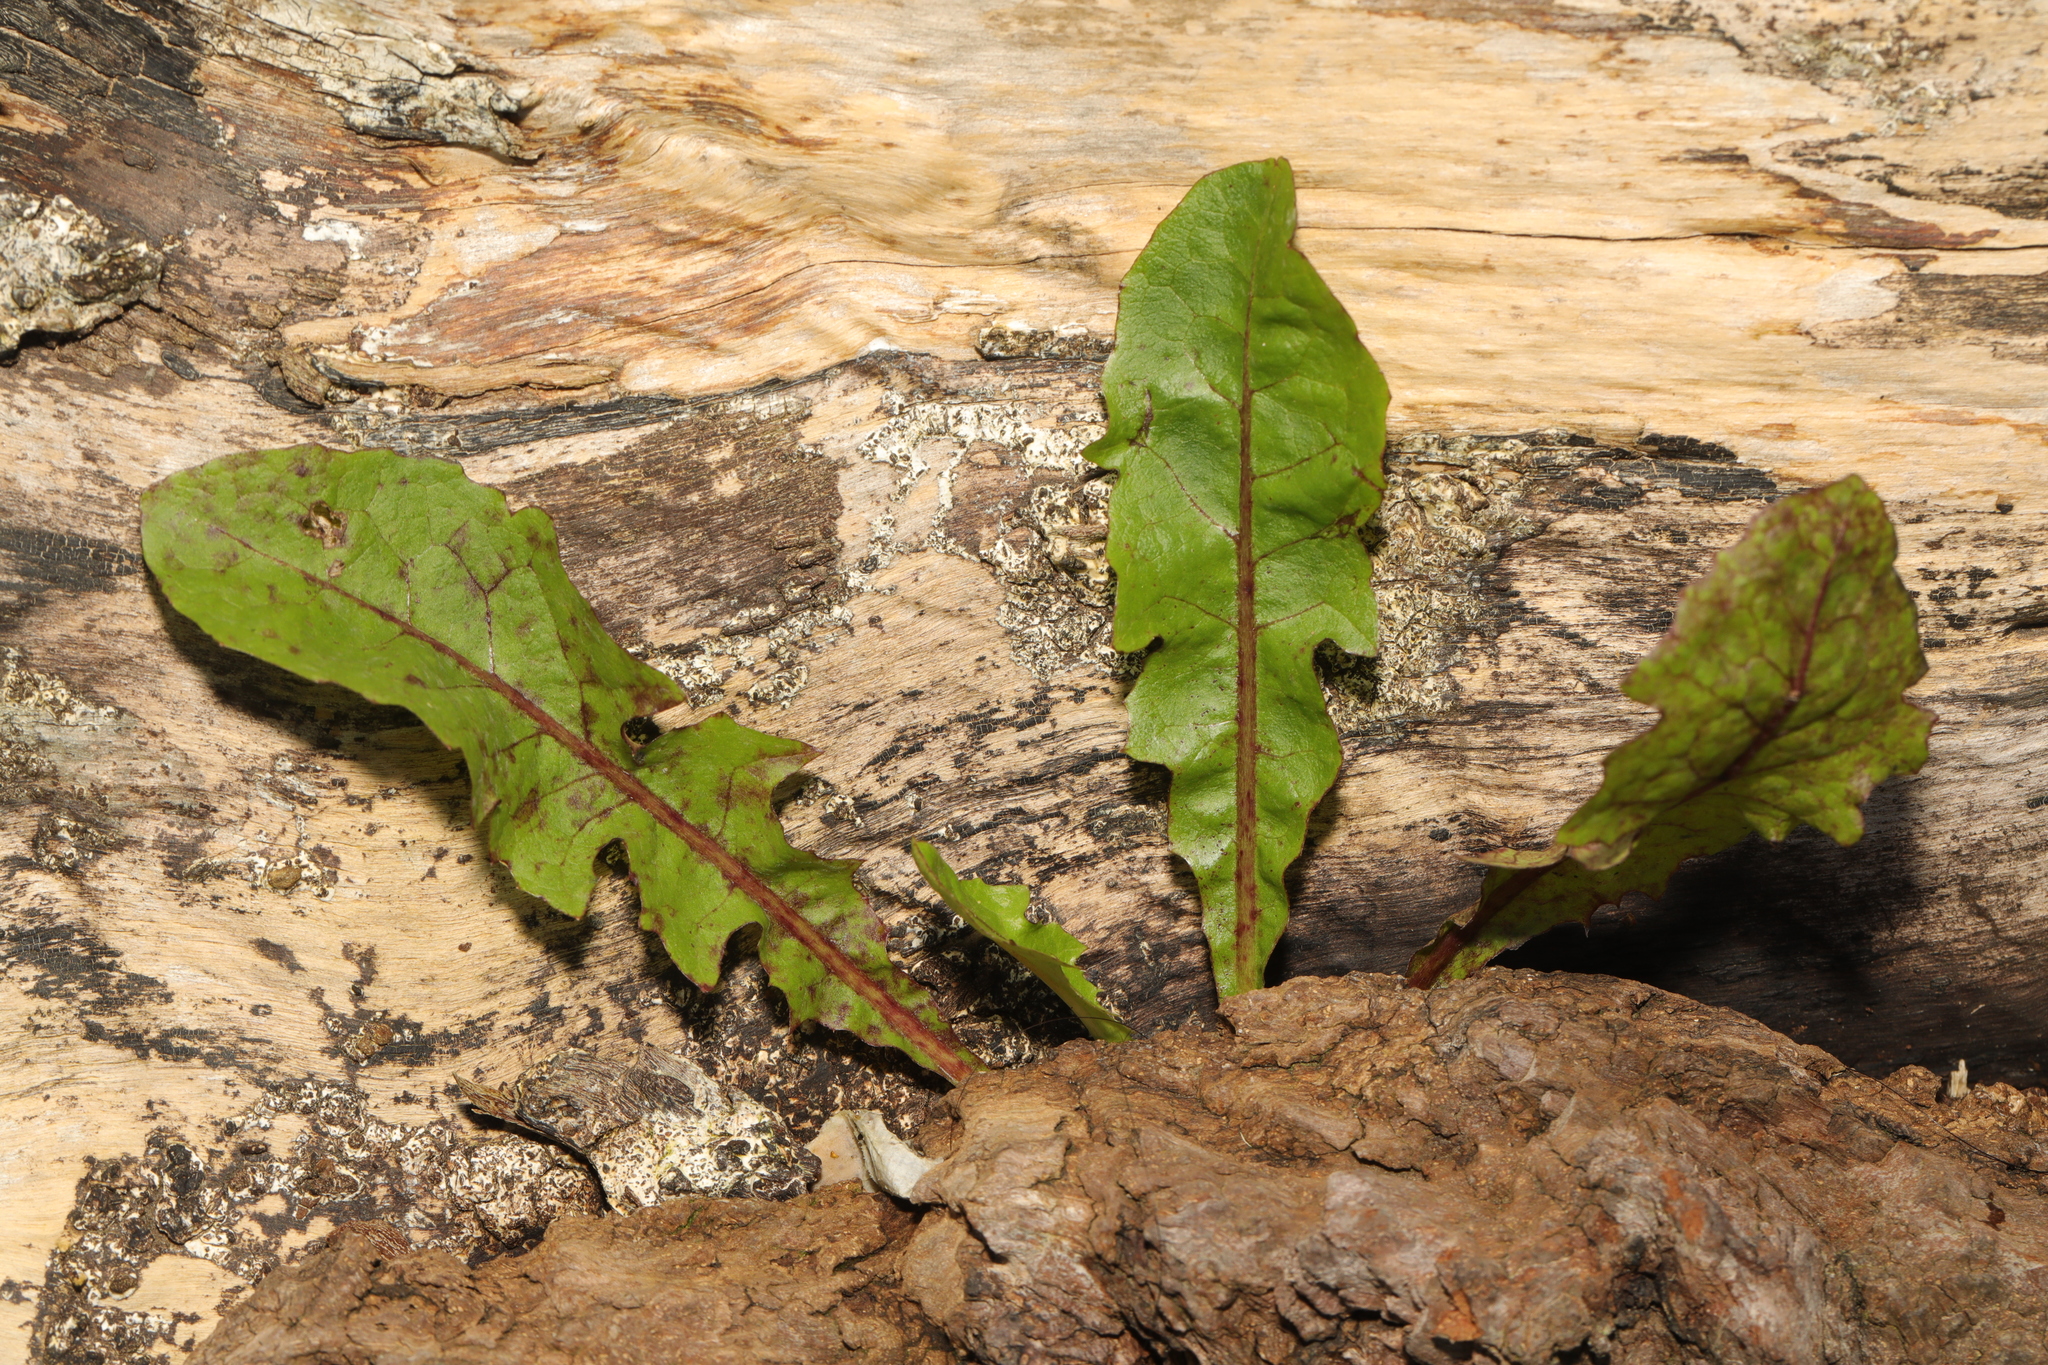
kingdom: Plantae
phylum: Tracheophyta
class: Magnoliopsida
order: Asterales
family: Asteraceae
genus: Taraxacum
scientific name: Taraxacum officinale
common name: Common dandelion
